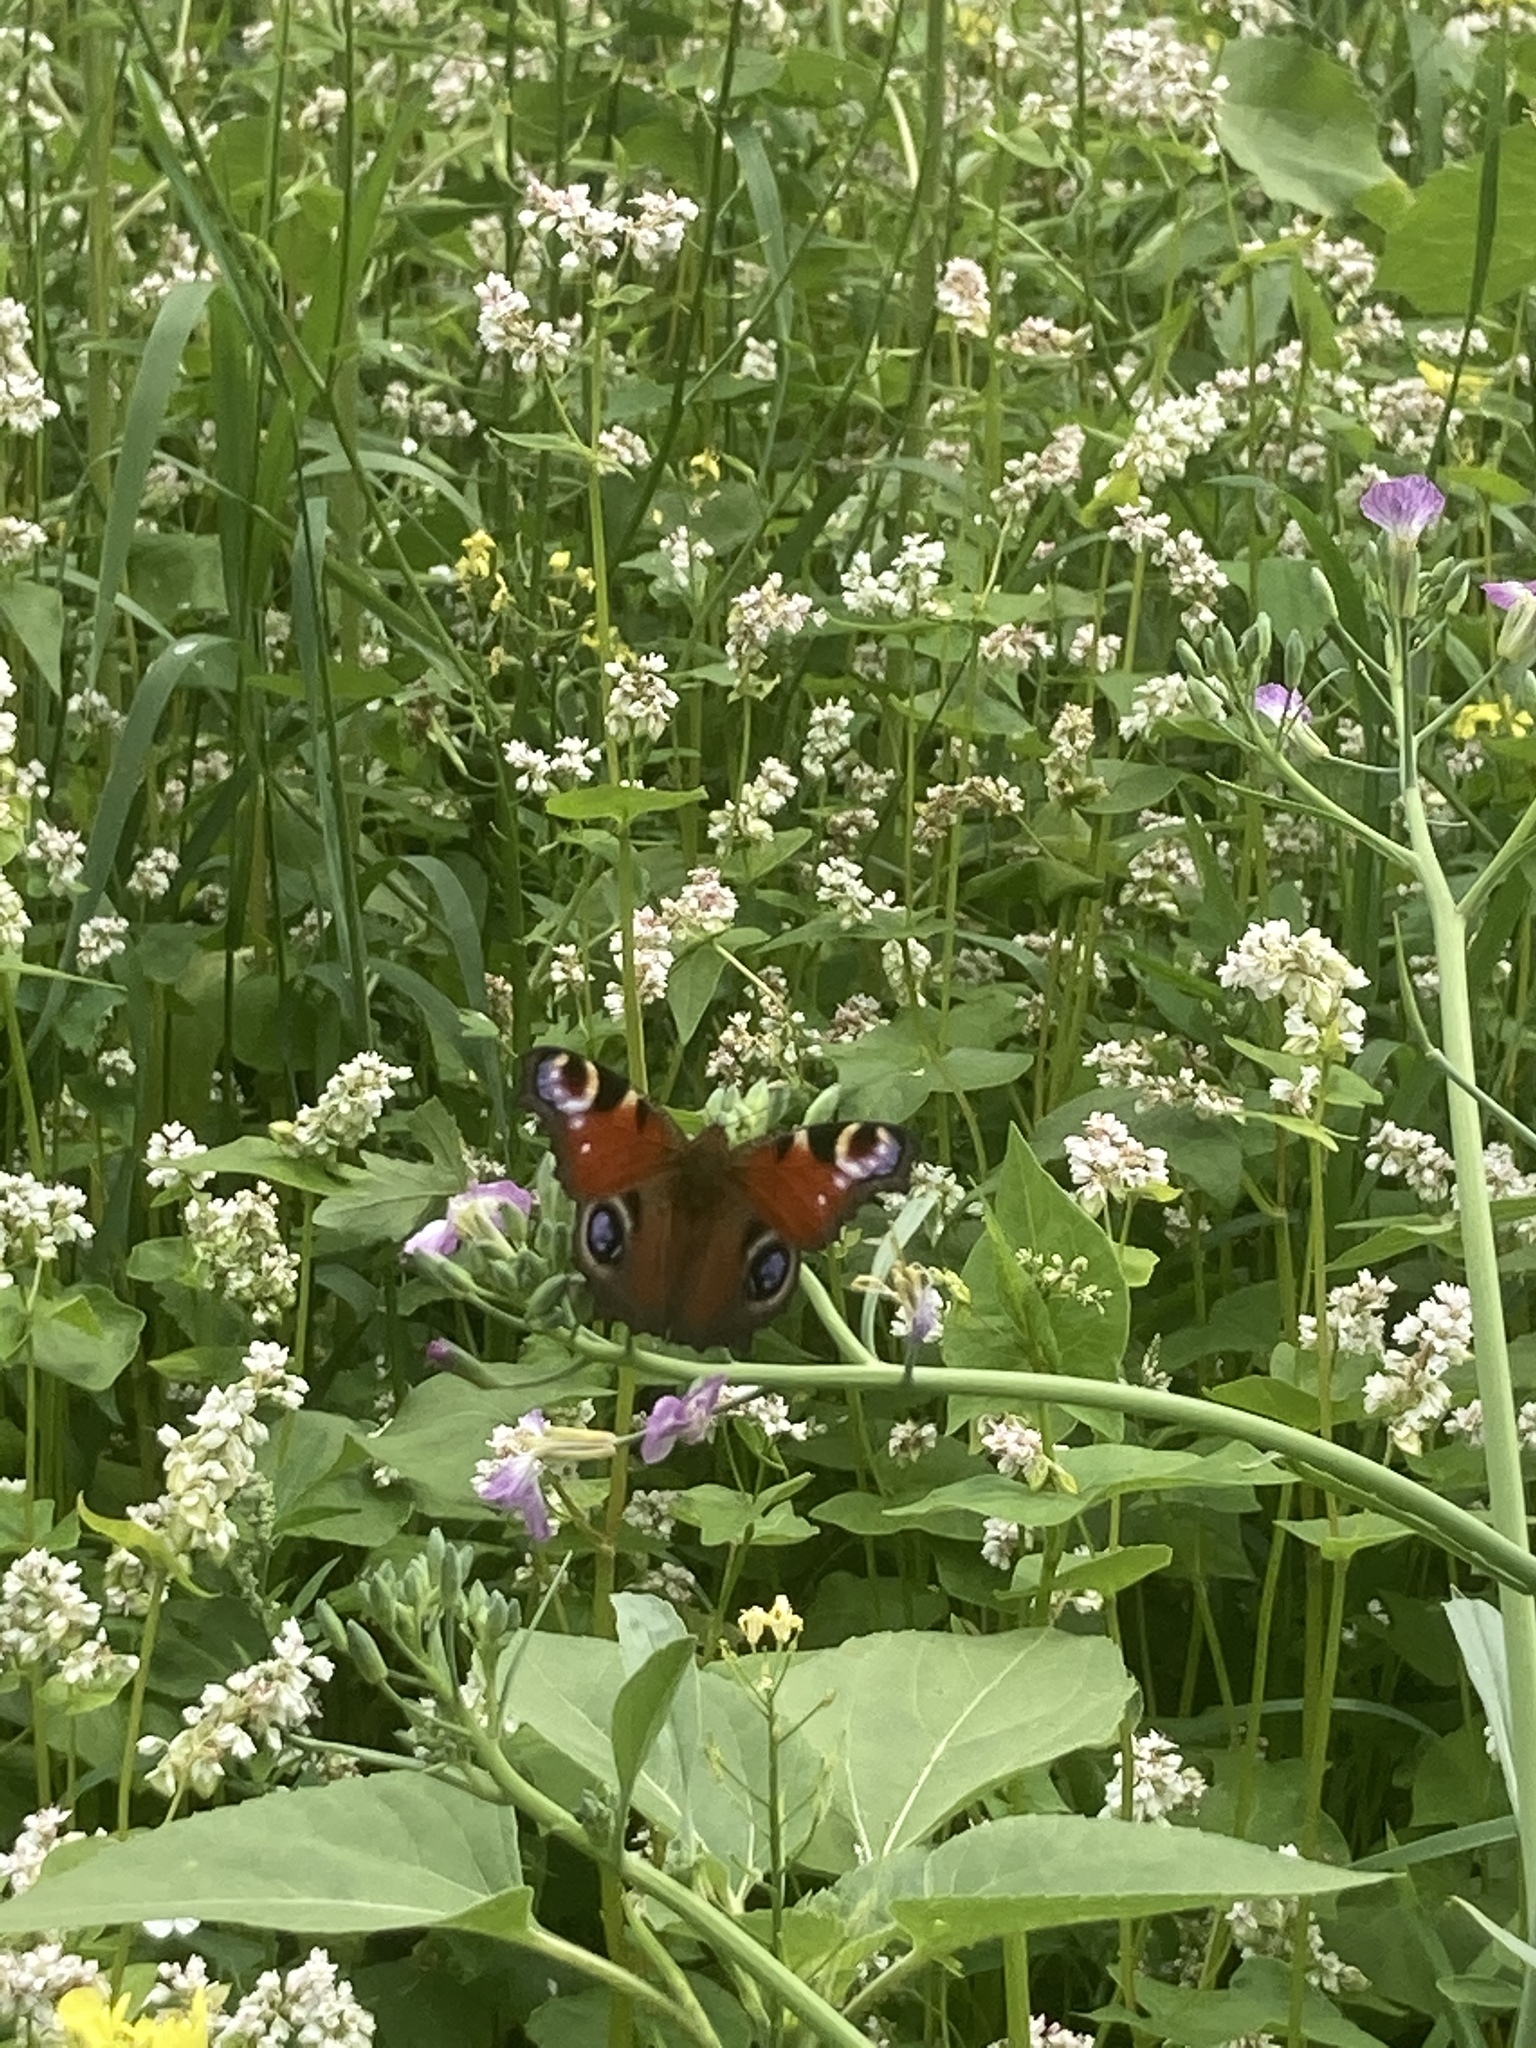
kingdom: Animalia
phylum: Arthropoda
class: Insecta
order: Lepidoptera
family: Nymphalidae
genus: Aglais
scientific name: Aglais io
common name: Peacock
